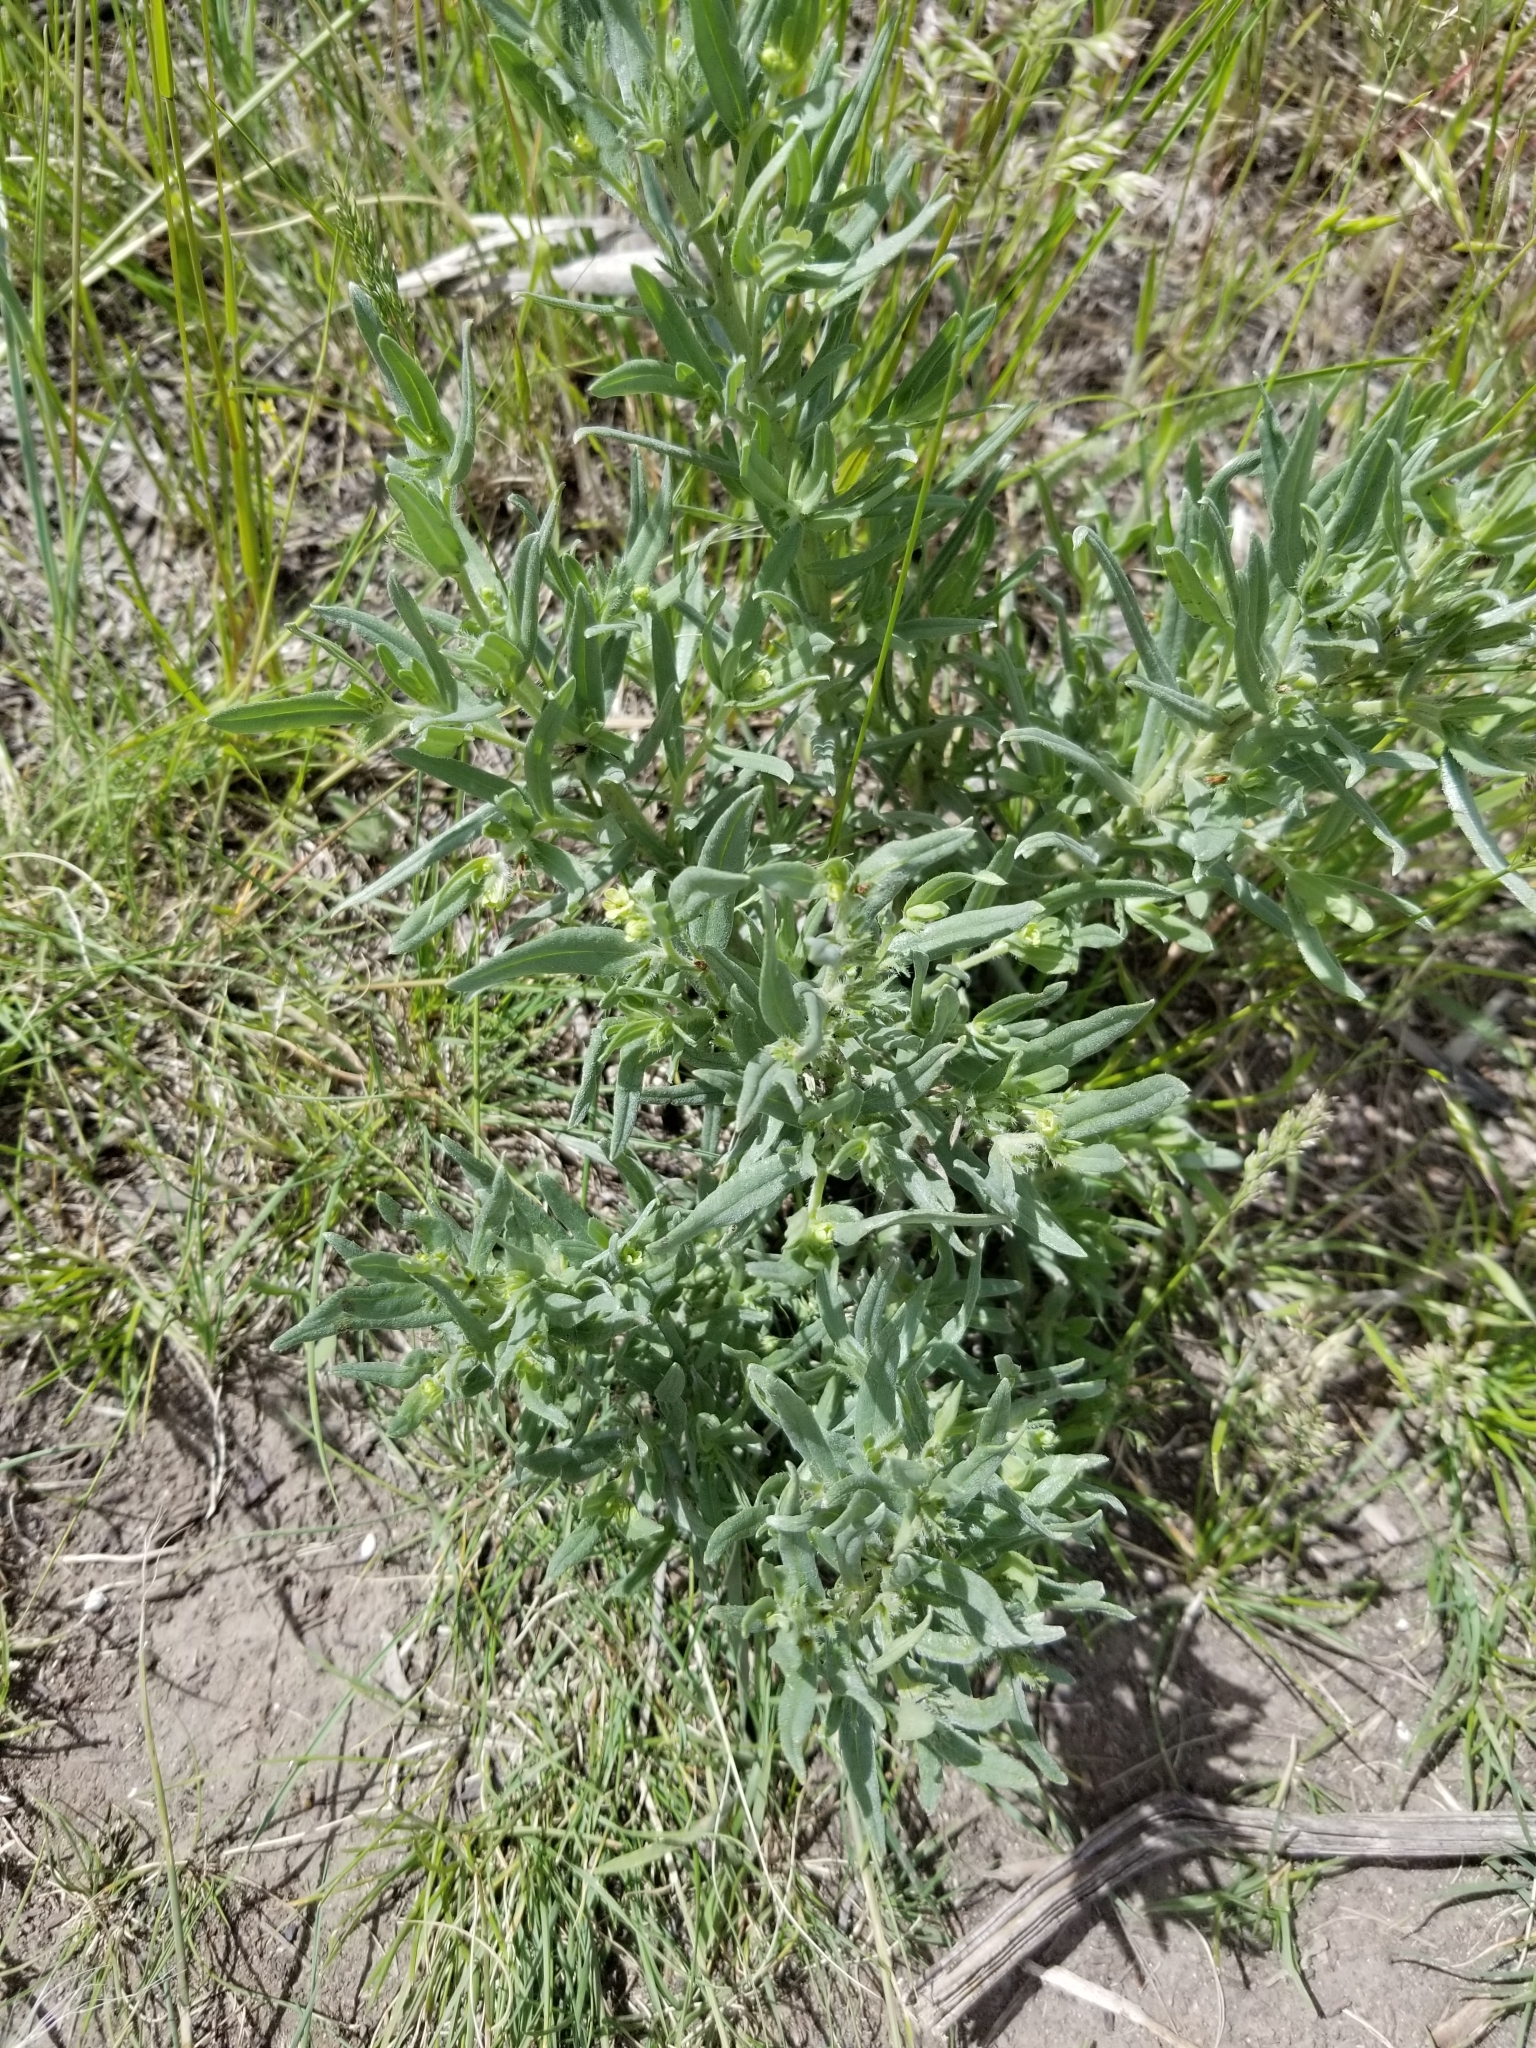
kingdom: Plantae
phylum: Tracheophyta
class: Magnoliopsida
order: Boraginales
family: Boraginaceae
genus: Lithospermum
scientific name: Lithospermum ruderale
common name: Western gromwell
